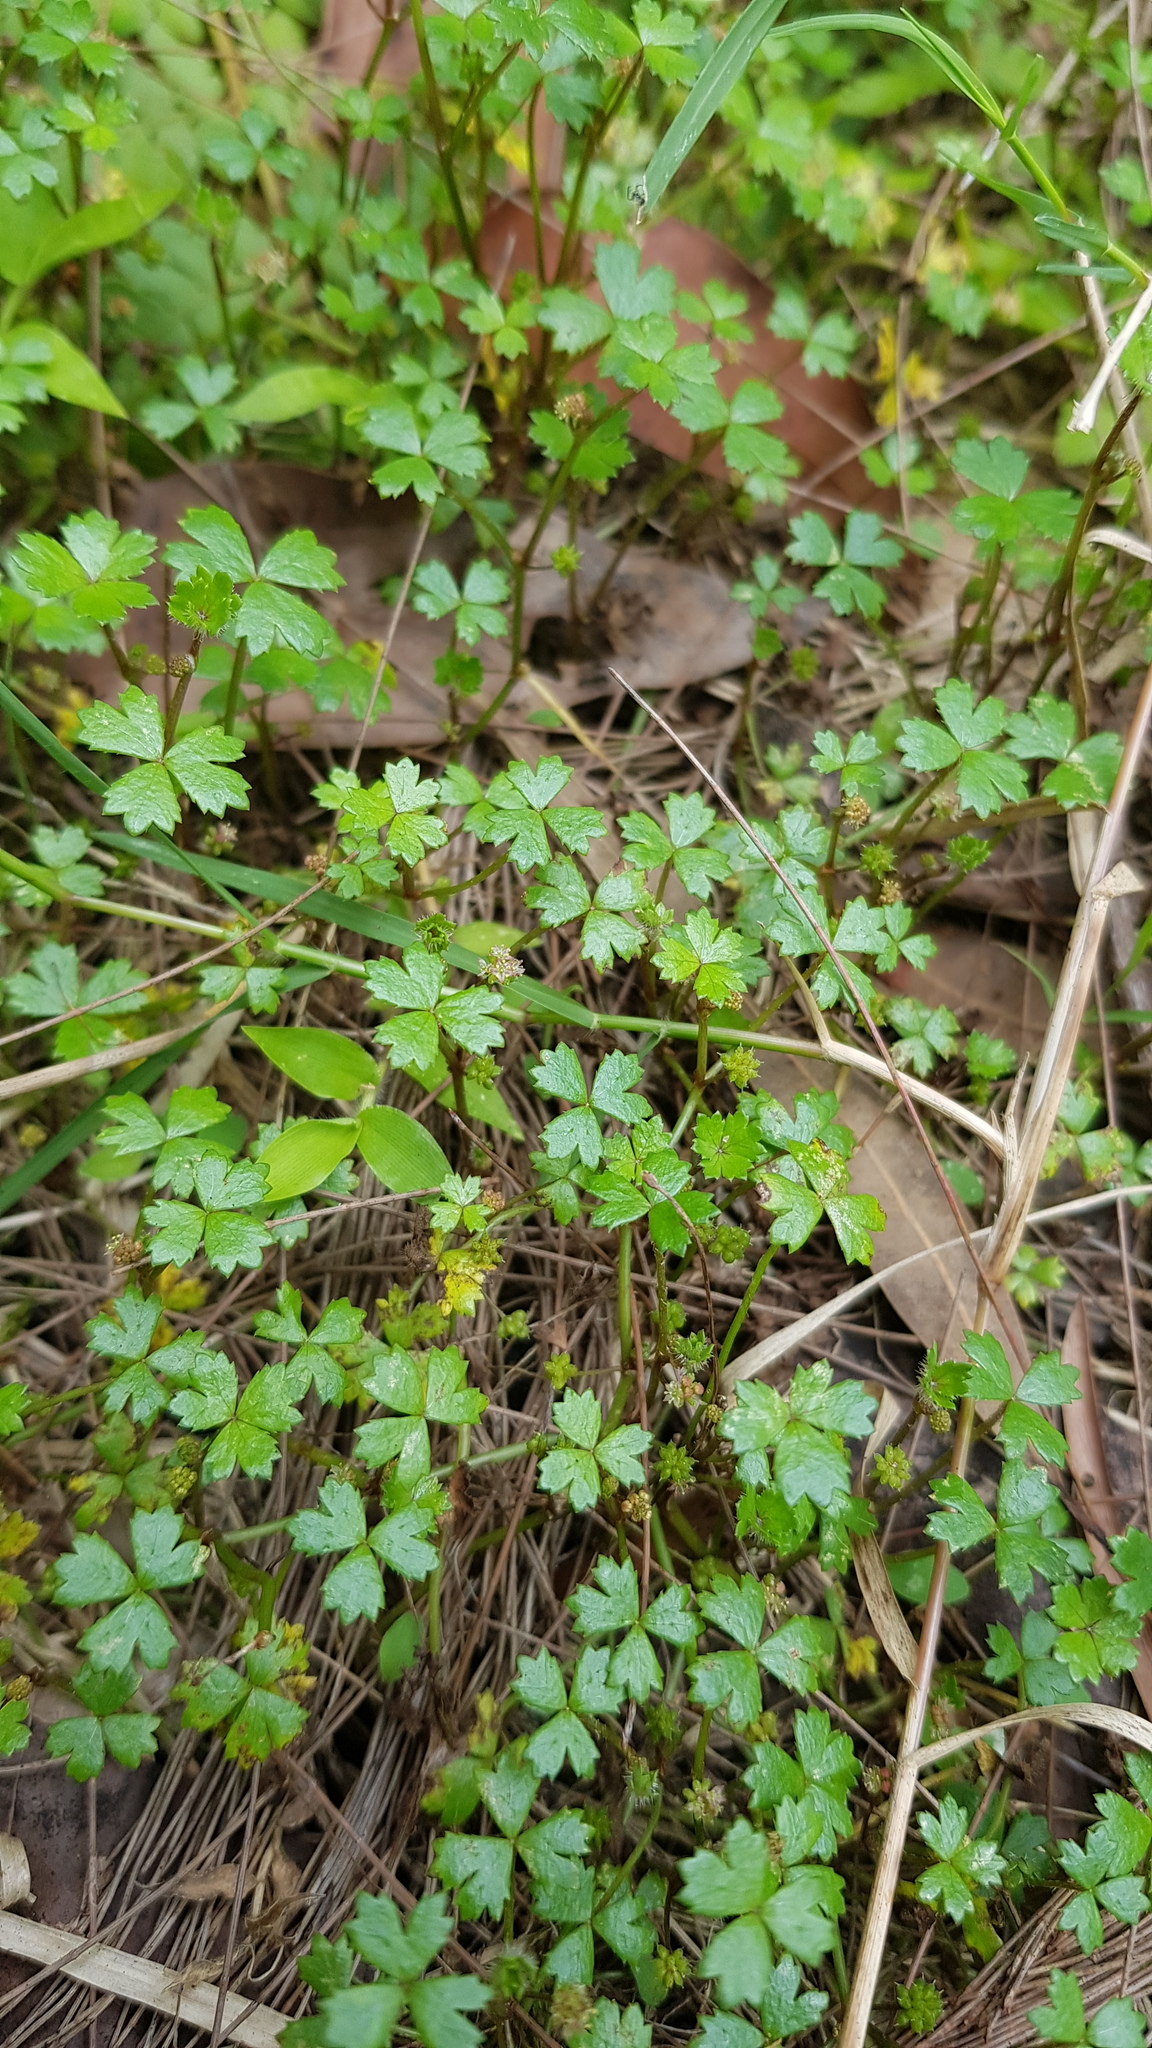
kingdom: Plantae
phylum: Tracheophyta
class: Magnoliopsida
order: Apiales
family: Araliaceae
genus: Hydrocotyle
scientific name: Hydrocotyle tripartita
